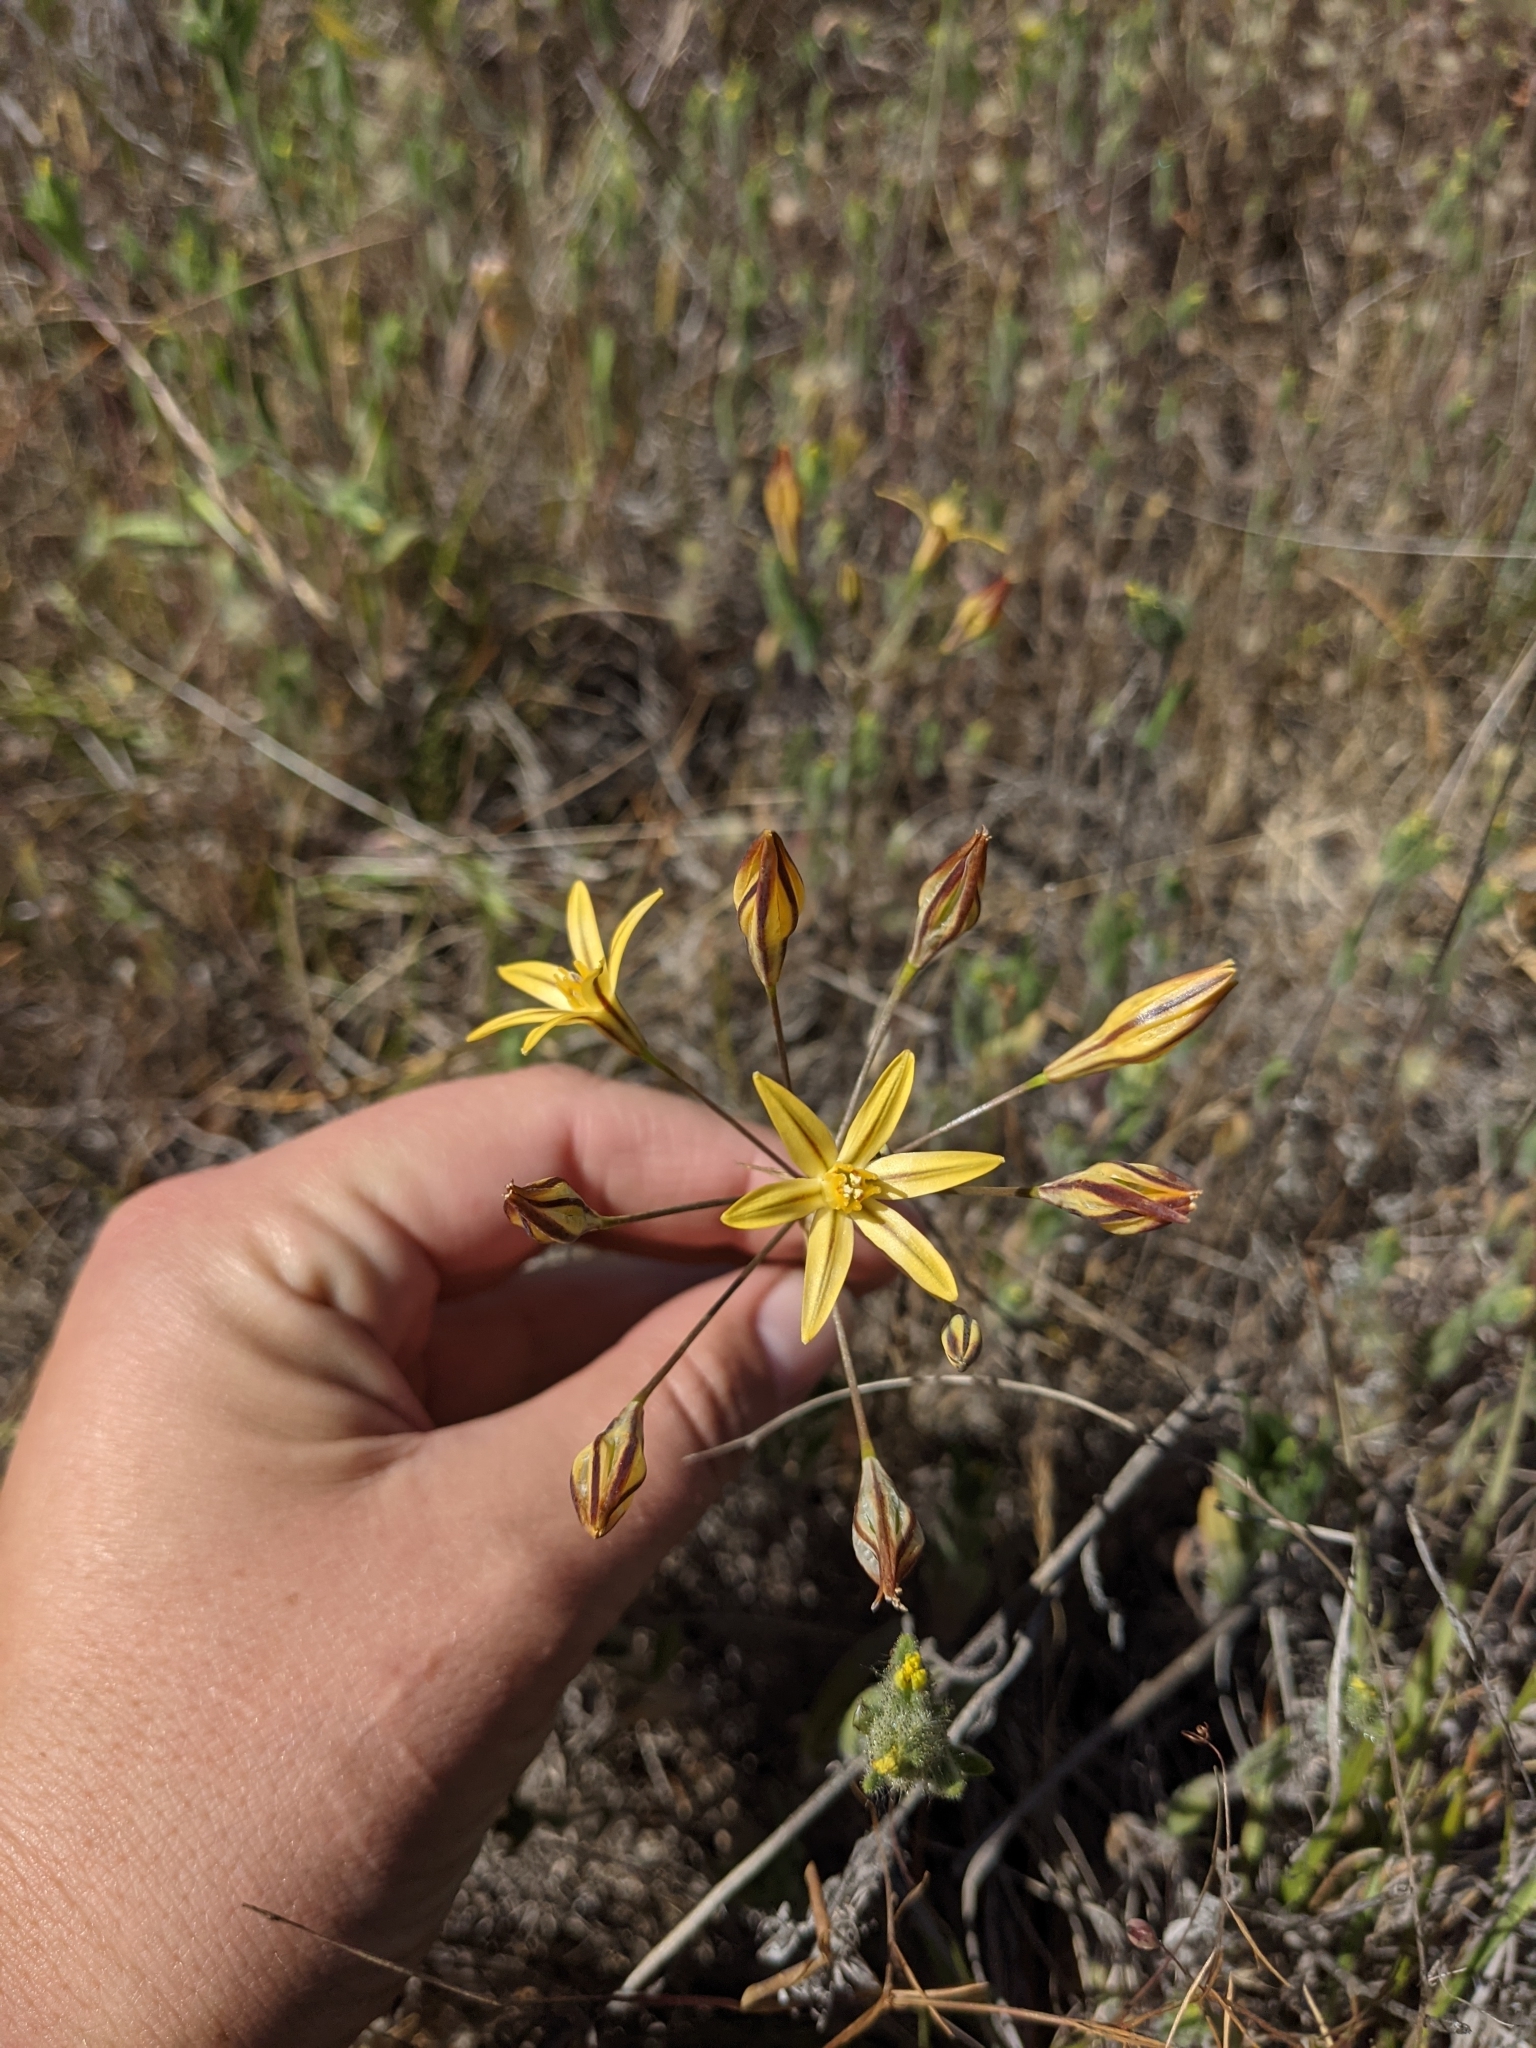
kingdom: Plantae
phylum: Tracheophyta
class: Liliopsida
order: Asparagales
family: Asparagaceae
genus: Triteleia
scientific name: Triteleia ixioides
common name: Yellow-brodiaea
